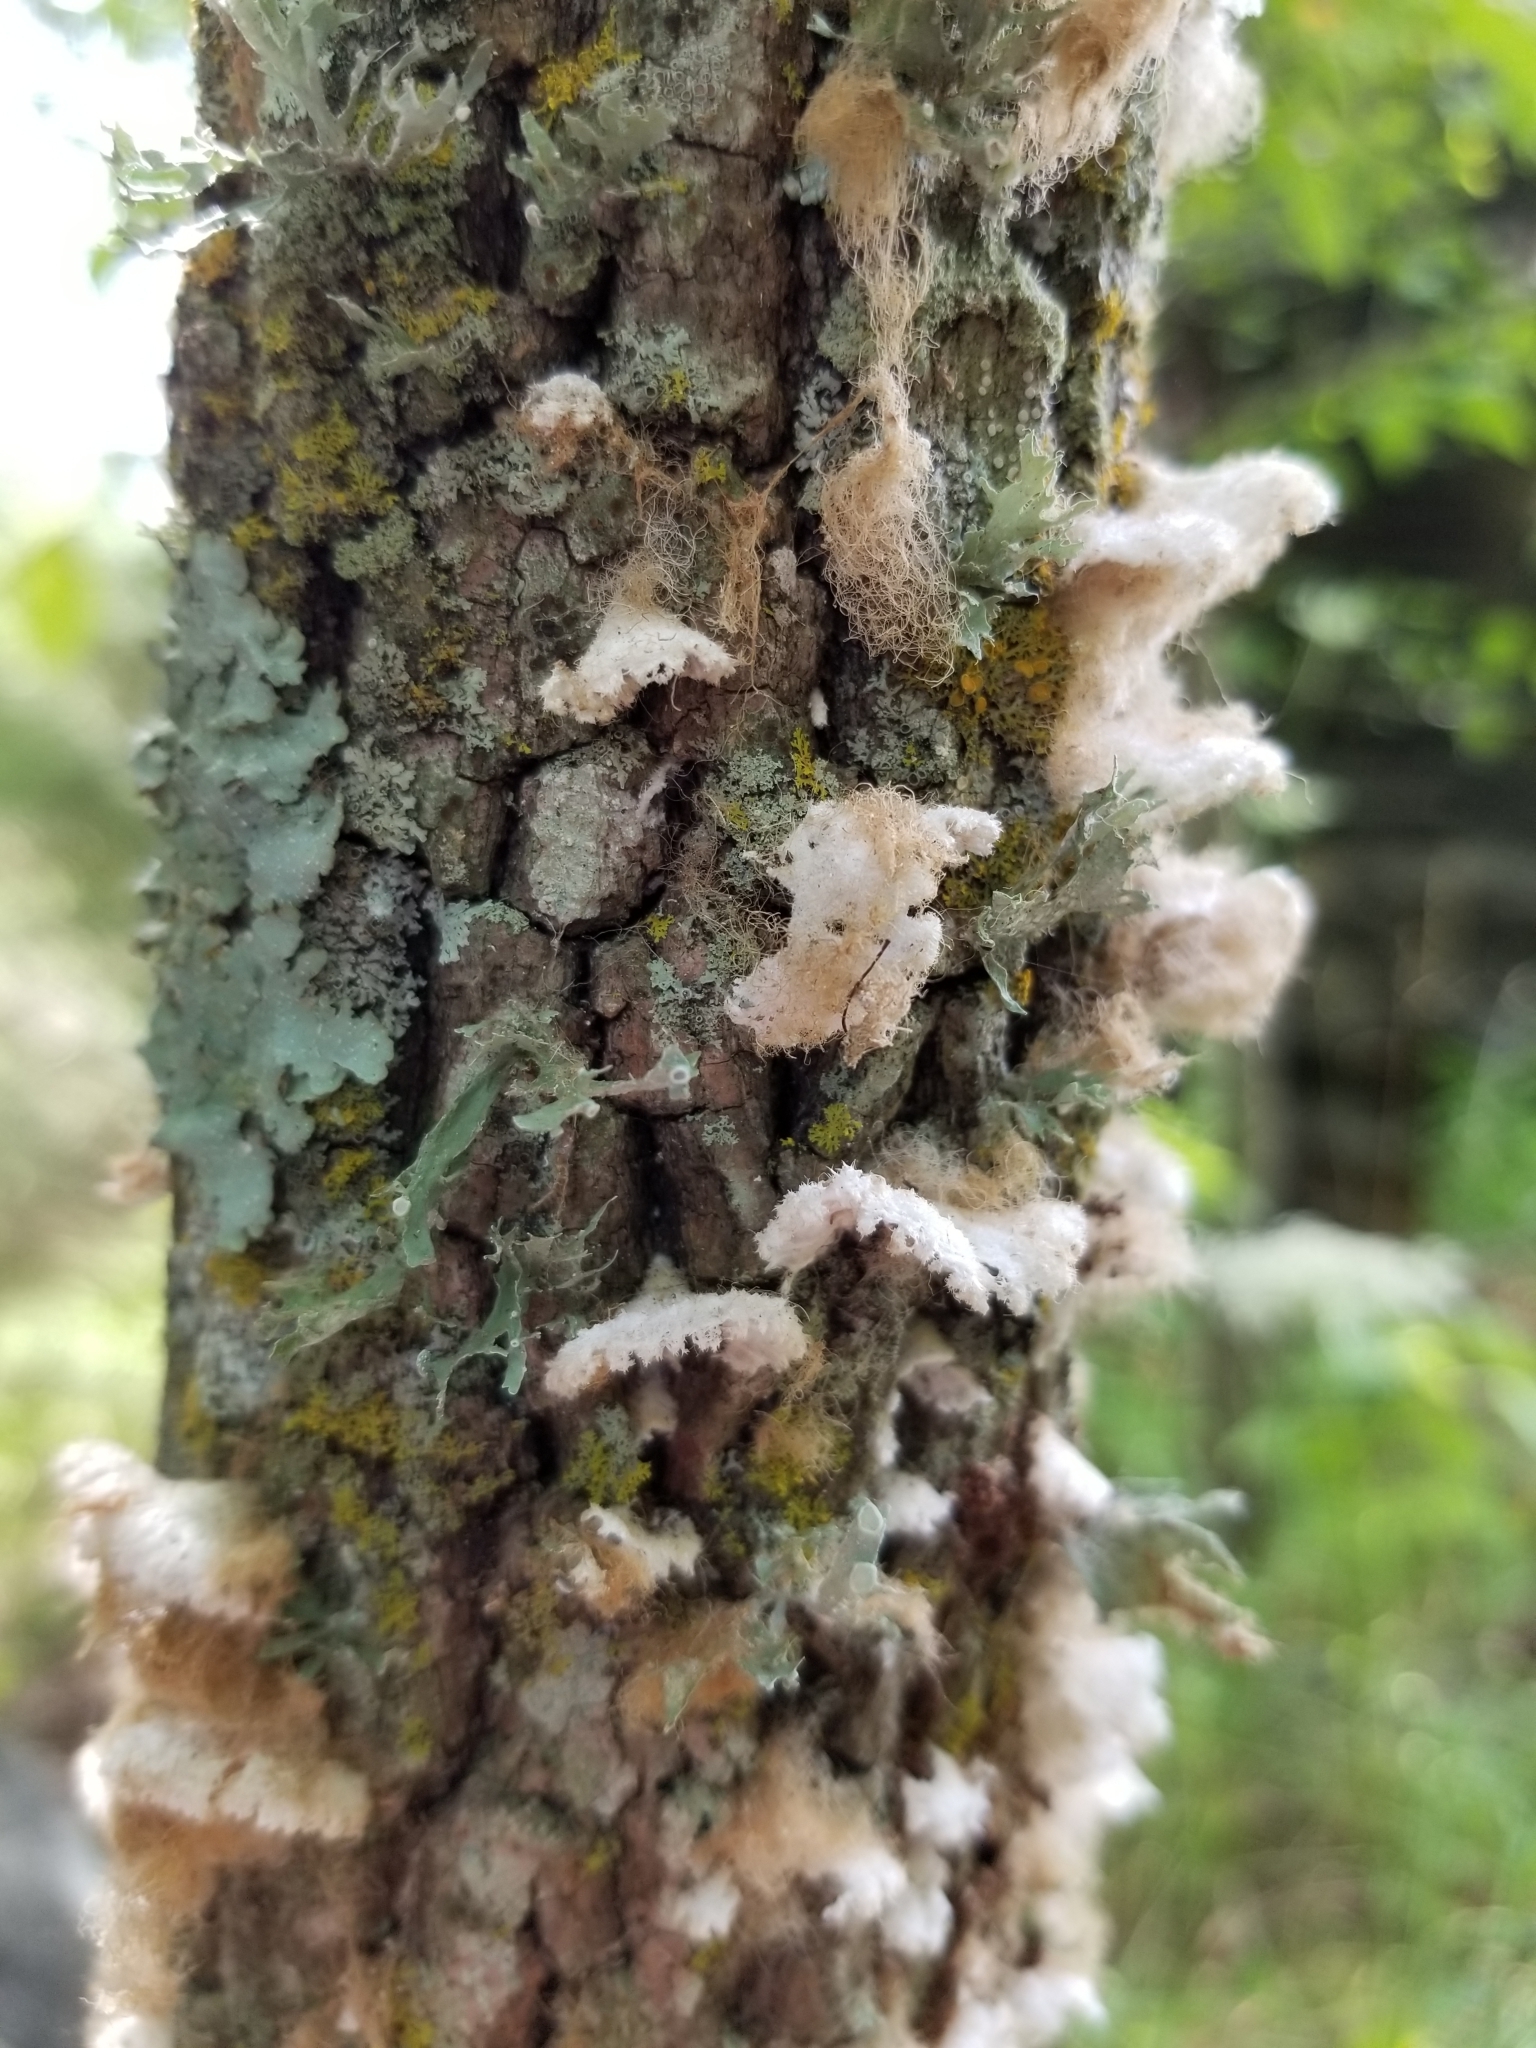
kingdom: Fungi
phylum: Basidiomycota
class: Agaricomycetes
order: Agaricales
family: Schizophyllaceae
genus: Schizophyllum
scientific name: Schizophyllum commune
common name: Common porecrust
